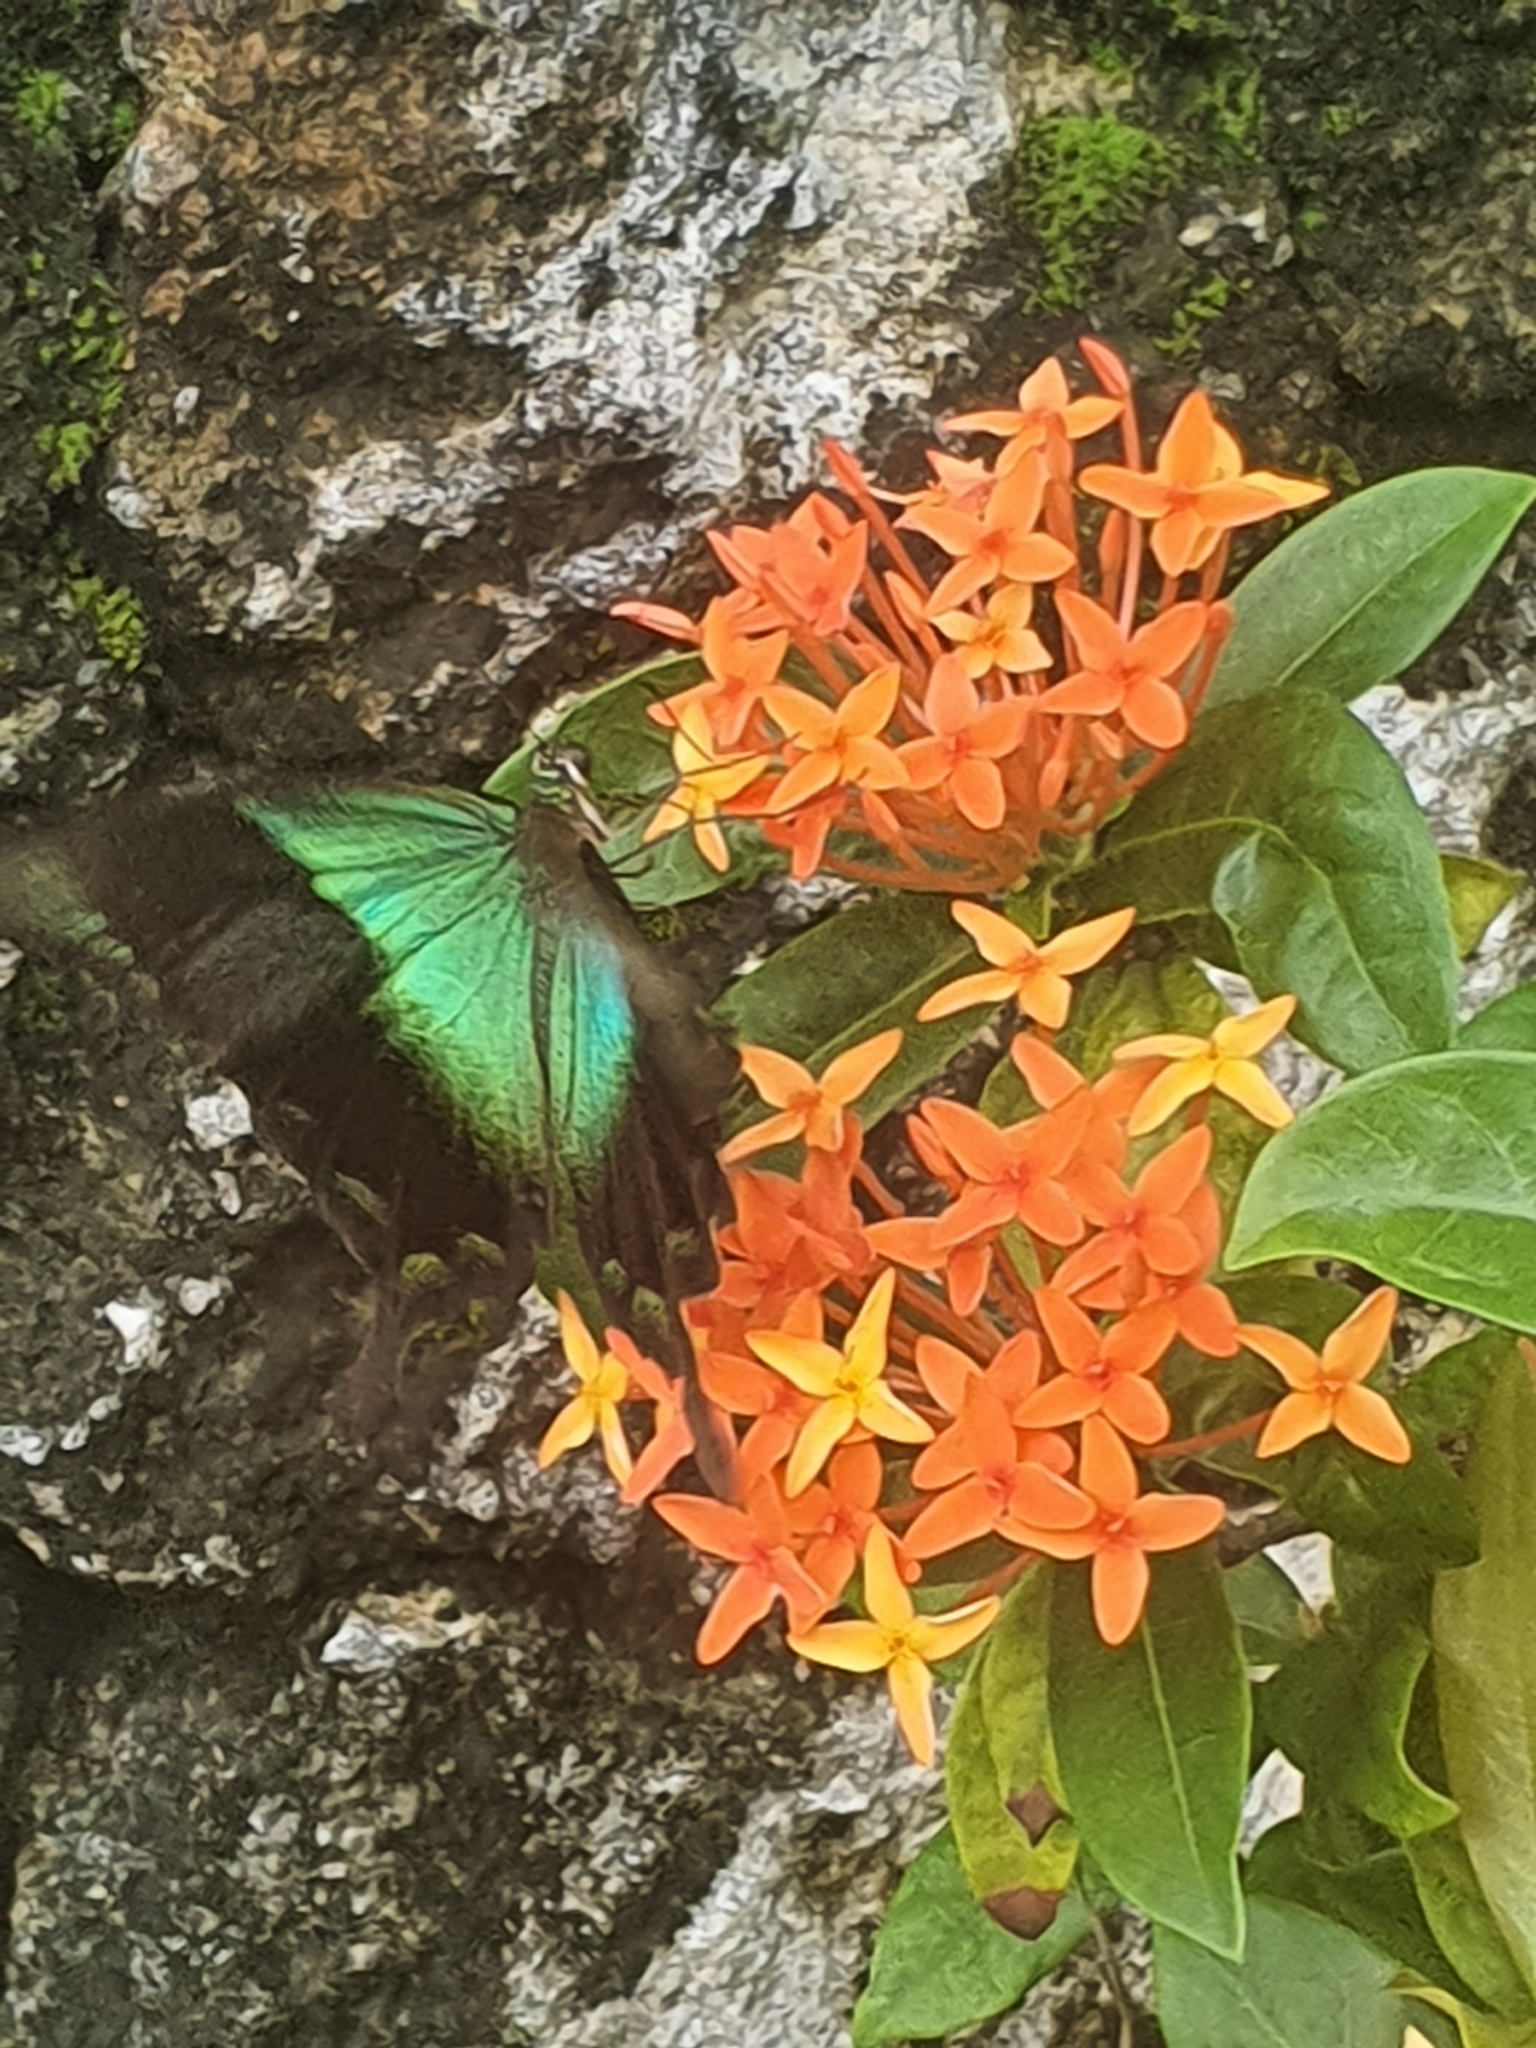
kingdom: Animalia
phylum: Arthropoda
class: Insecta
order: Lepidoptera
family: Papilionidae
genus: Papilio
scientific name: Papilio peranthus
